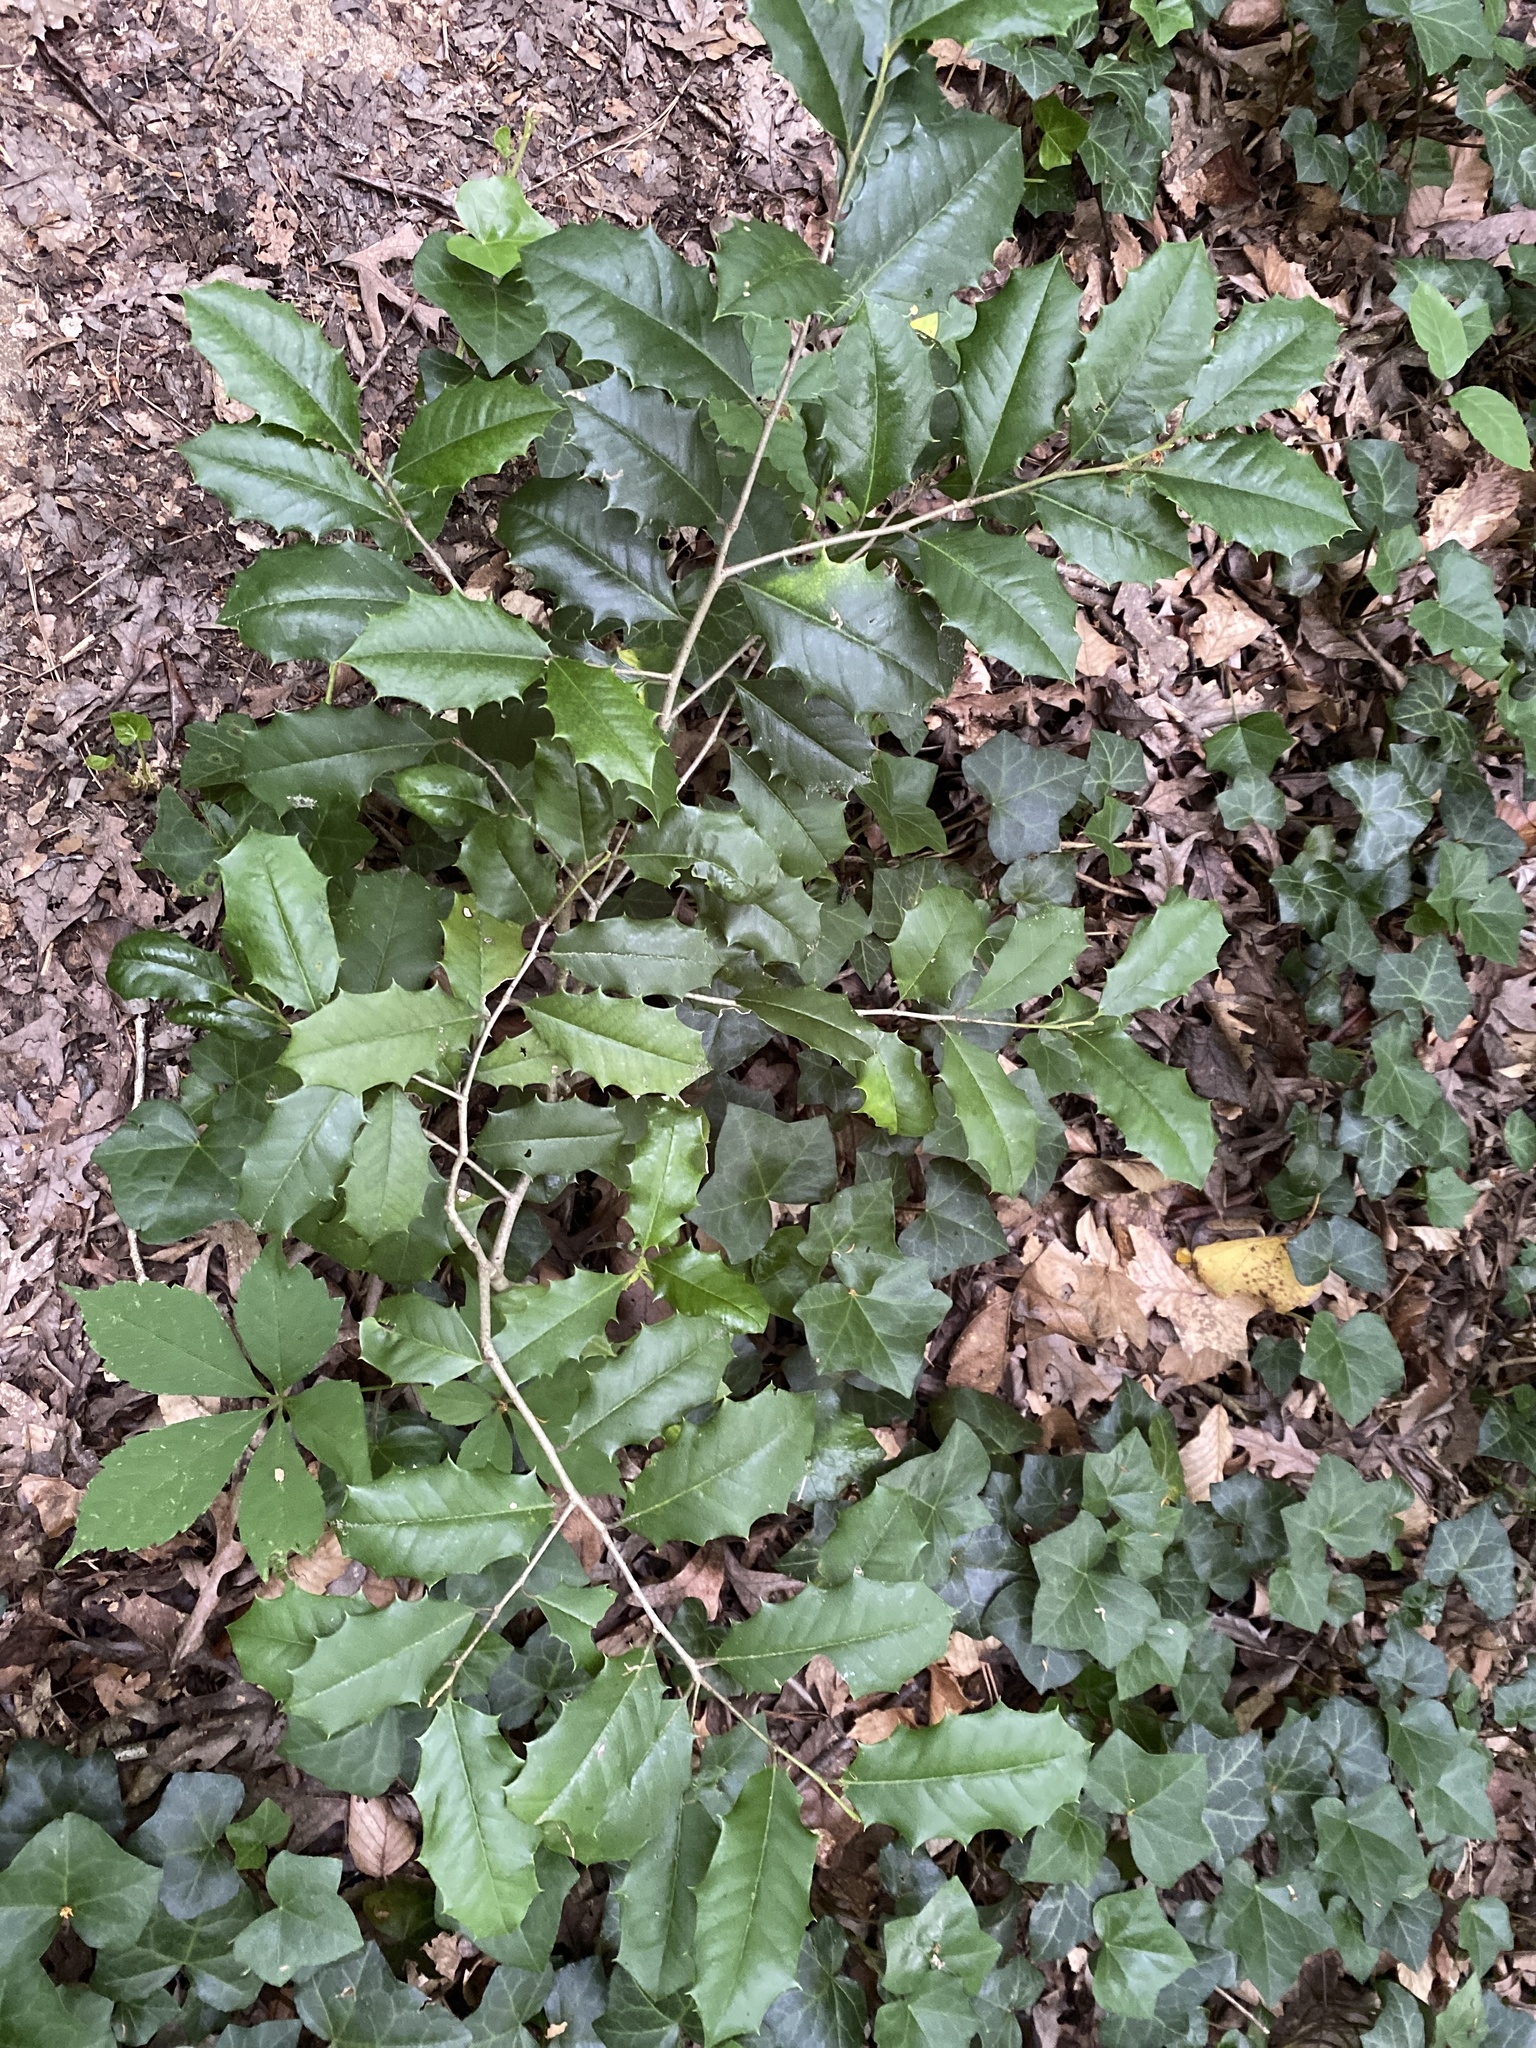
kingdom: Plantae
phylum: Tracheophyta
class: Magnoliopsida
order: Aquifoliales
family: Aquifoliaceae
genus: Ilex
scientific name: Ilex opaca
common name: American holly
